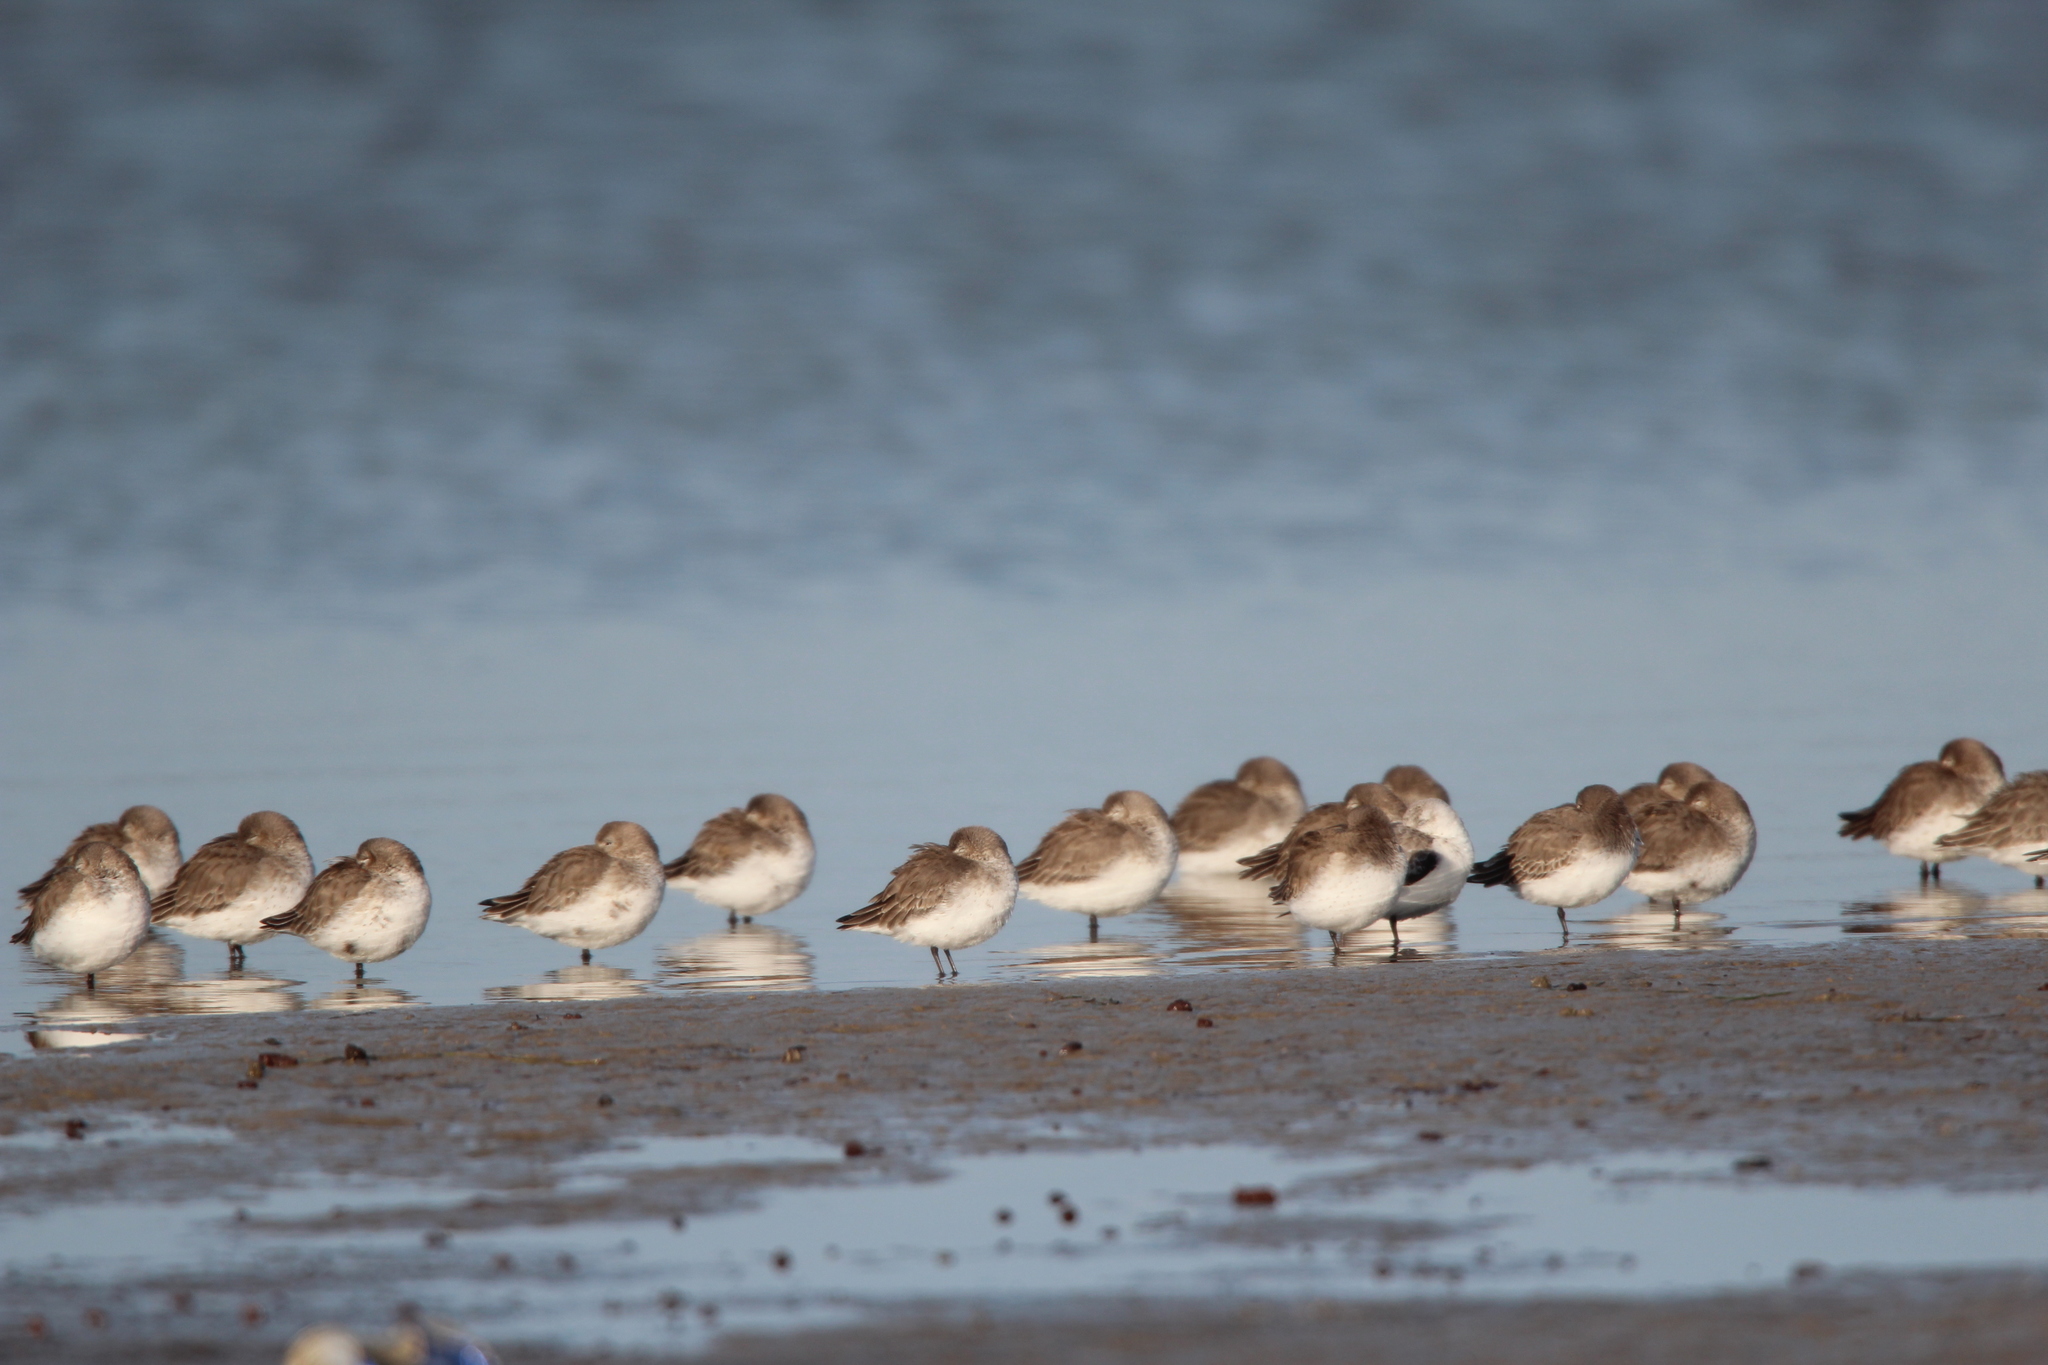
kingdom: Animalia
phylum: Chordata
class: Aves
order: Charadriiformes
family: Scolopacidae
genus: Calidris
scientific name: Calidris alpina
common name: Dunlin
